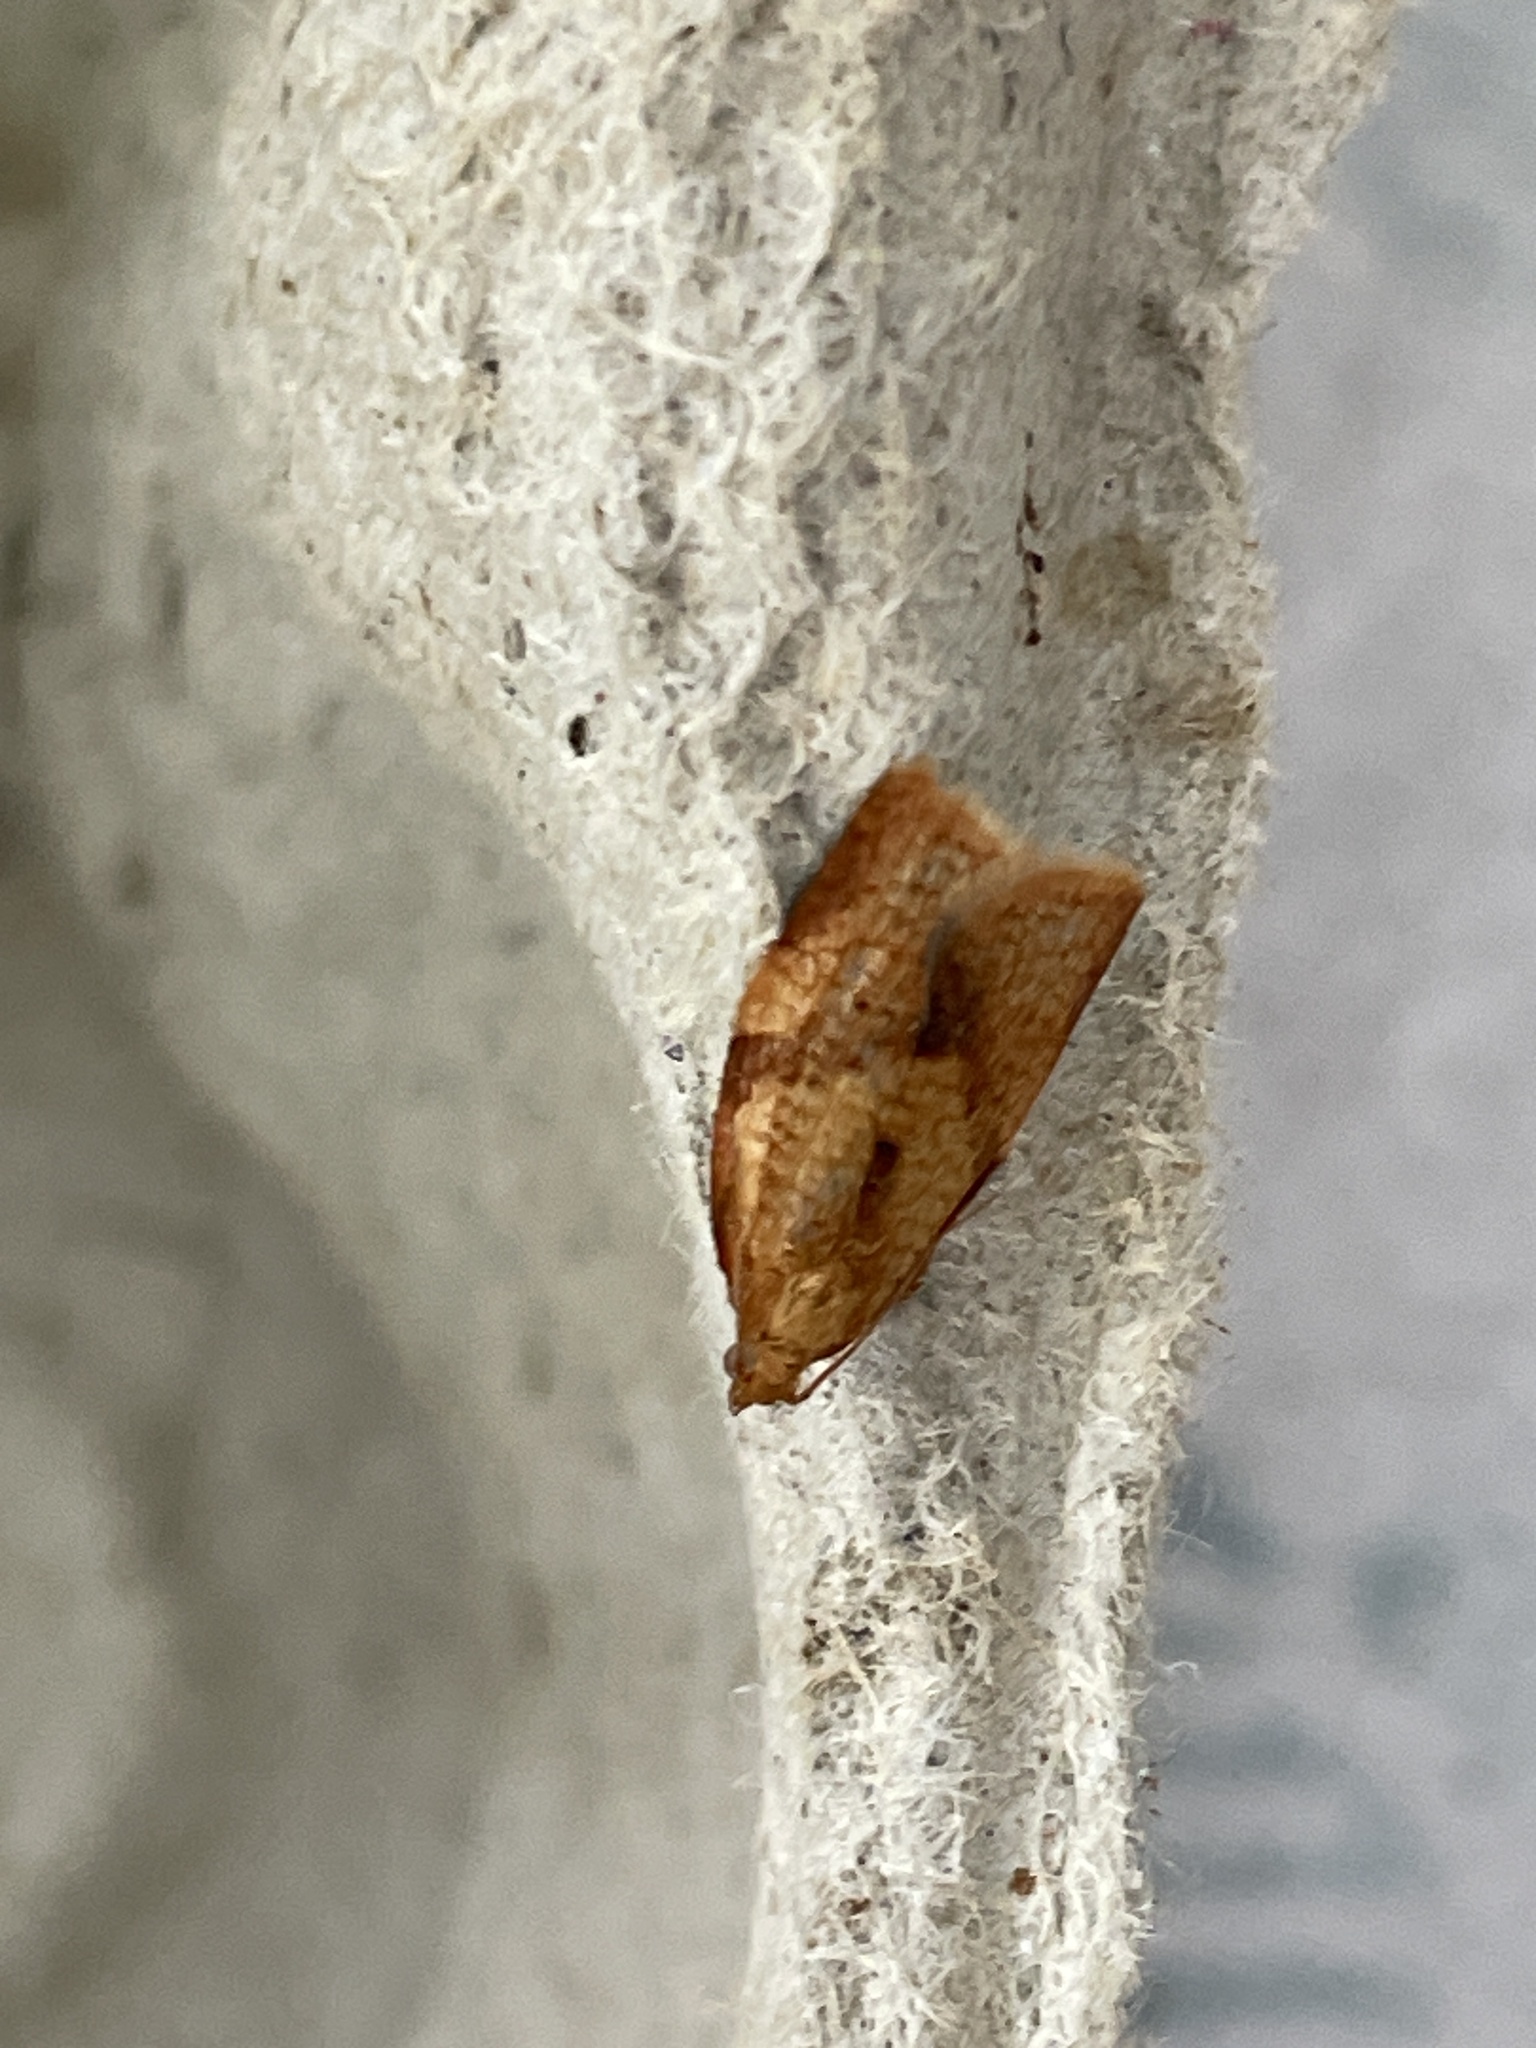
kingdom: Animalia
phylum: Arthropoda
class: Insecta
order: Lepidoptera
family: Tortricidae
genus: Clepsis
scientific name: Clepsis consimilana
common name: Privet tortrix
